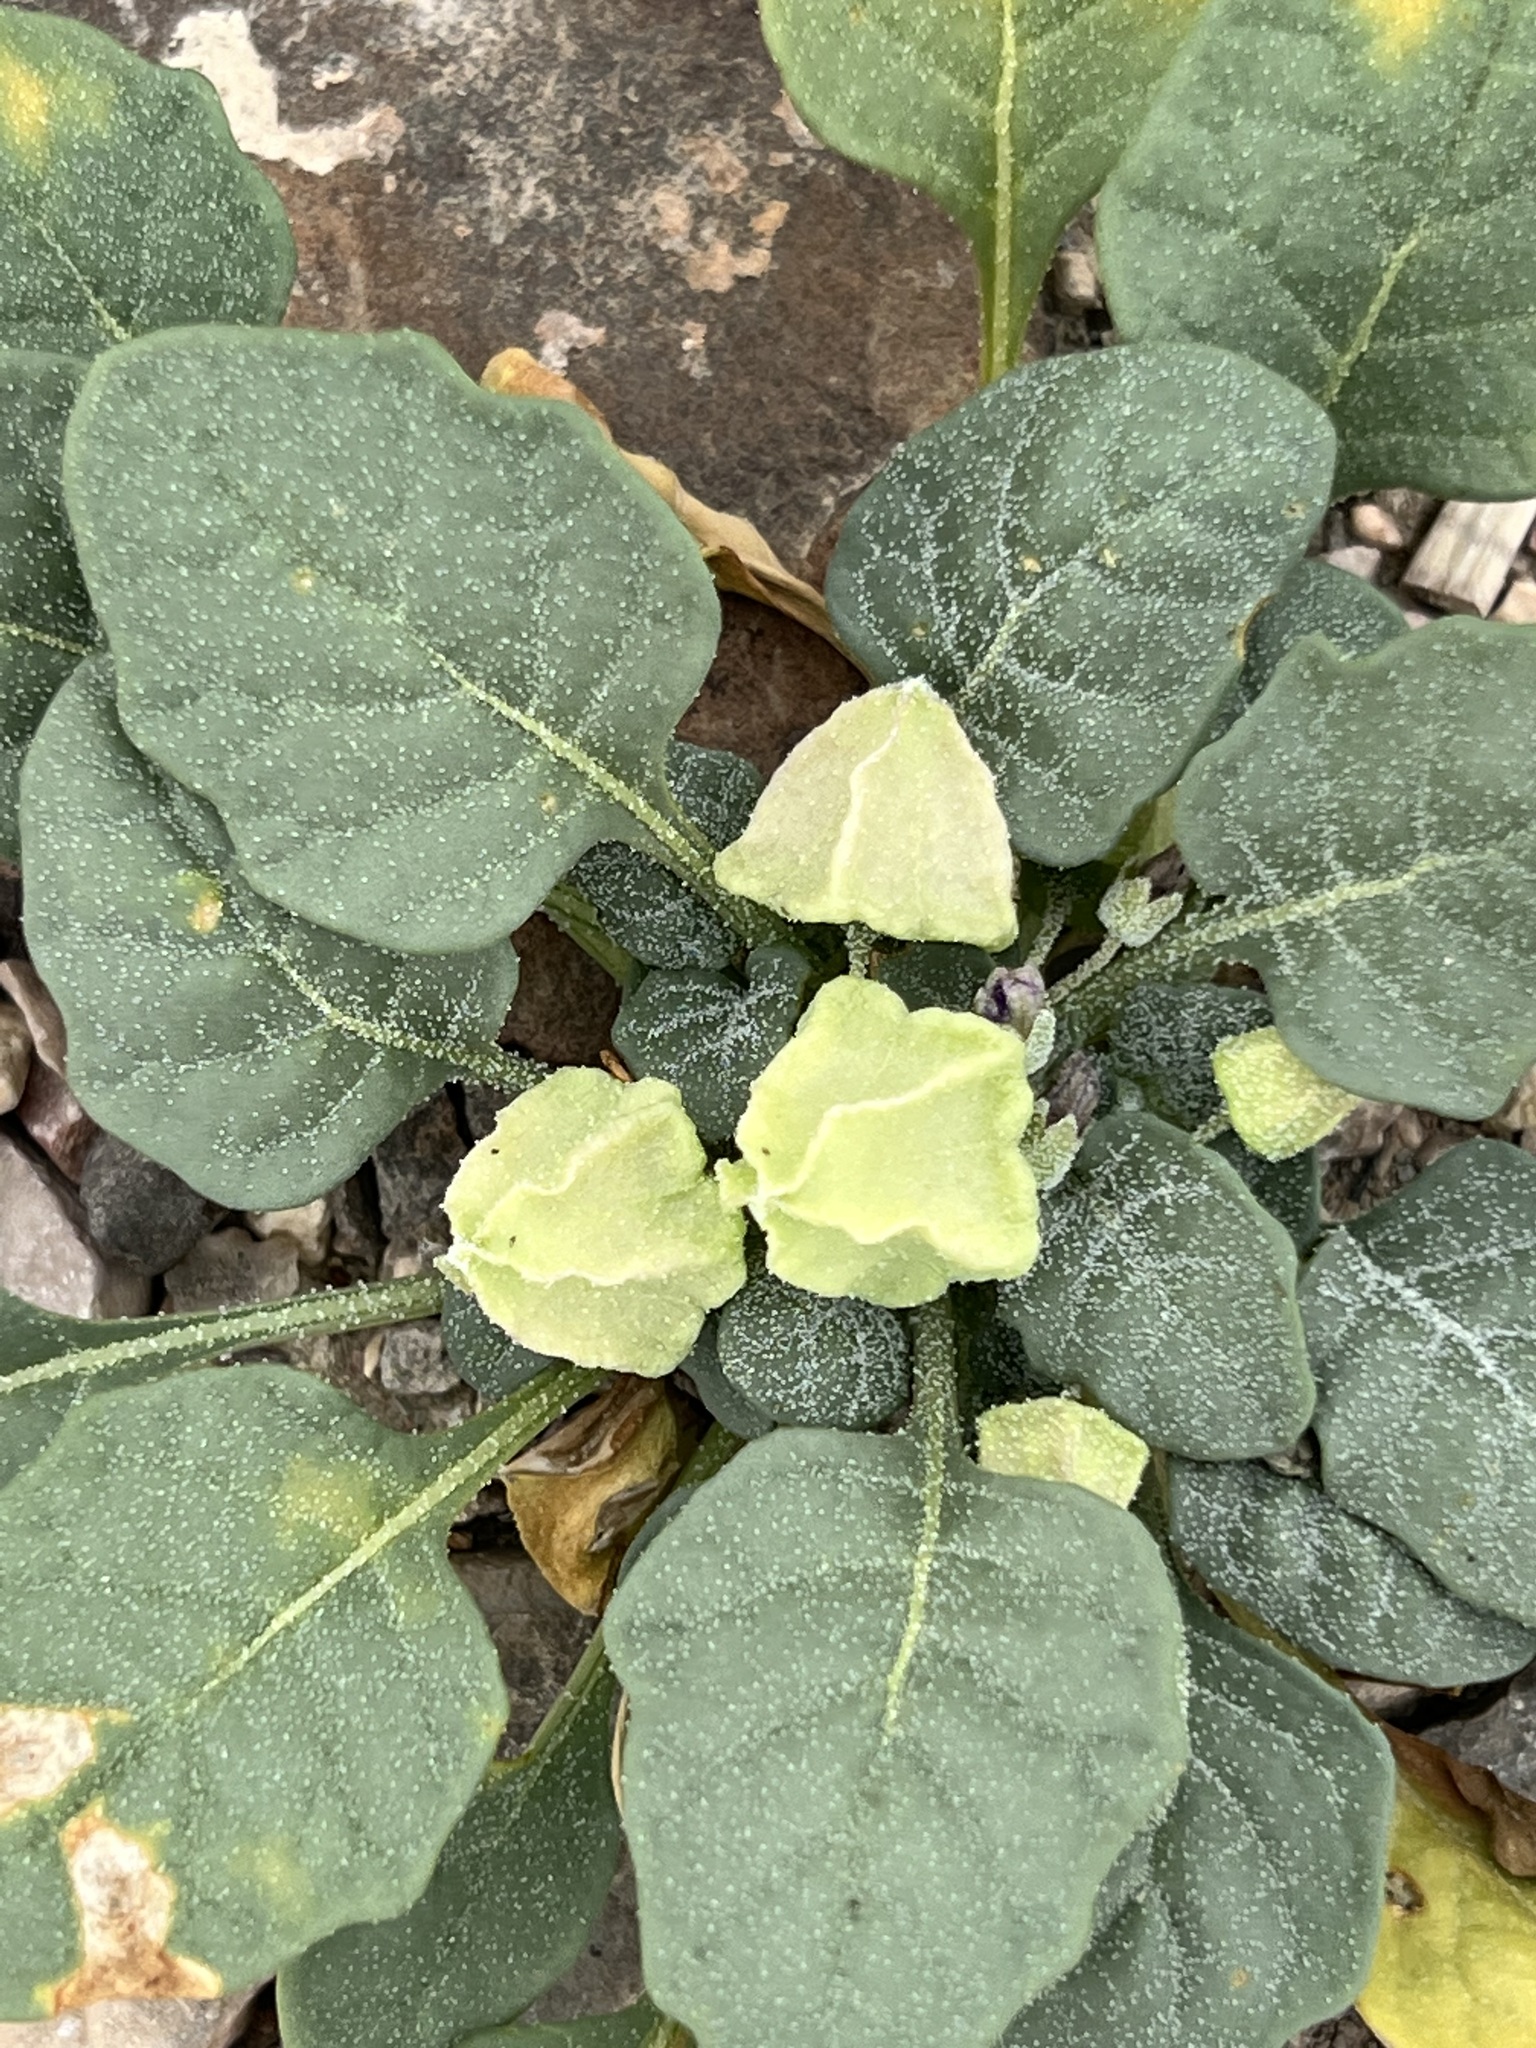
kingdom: Plantae
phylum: Tracheophyta
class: Magnoliopsida
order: Solanales
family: Solanaceae
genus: Quincula
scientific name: Quincula lobata
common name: Purple-ground-cherry
